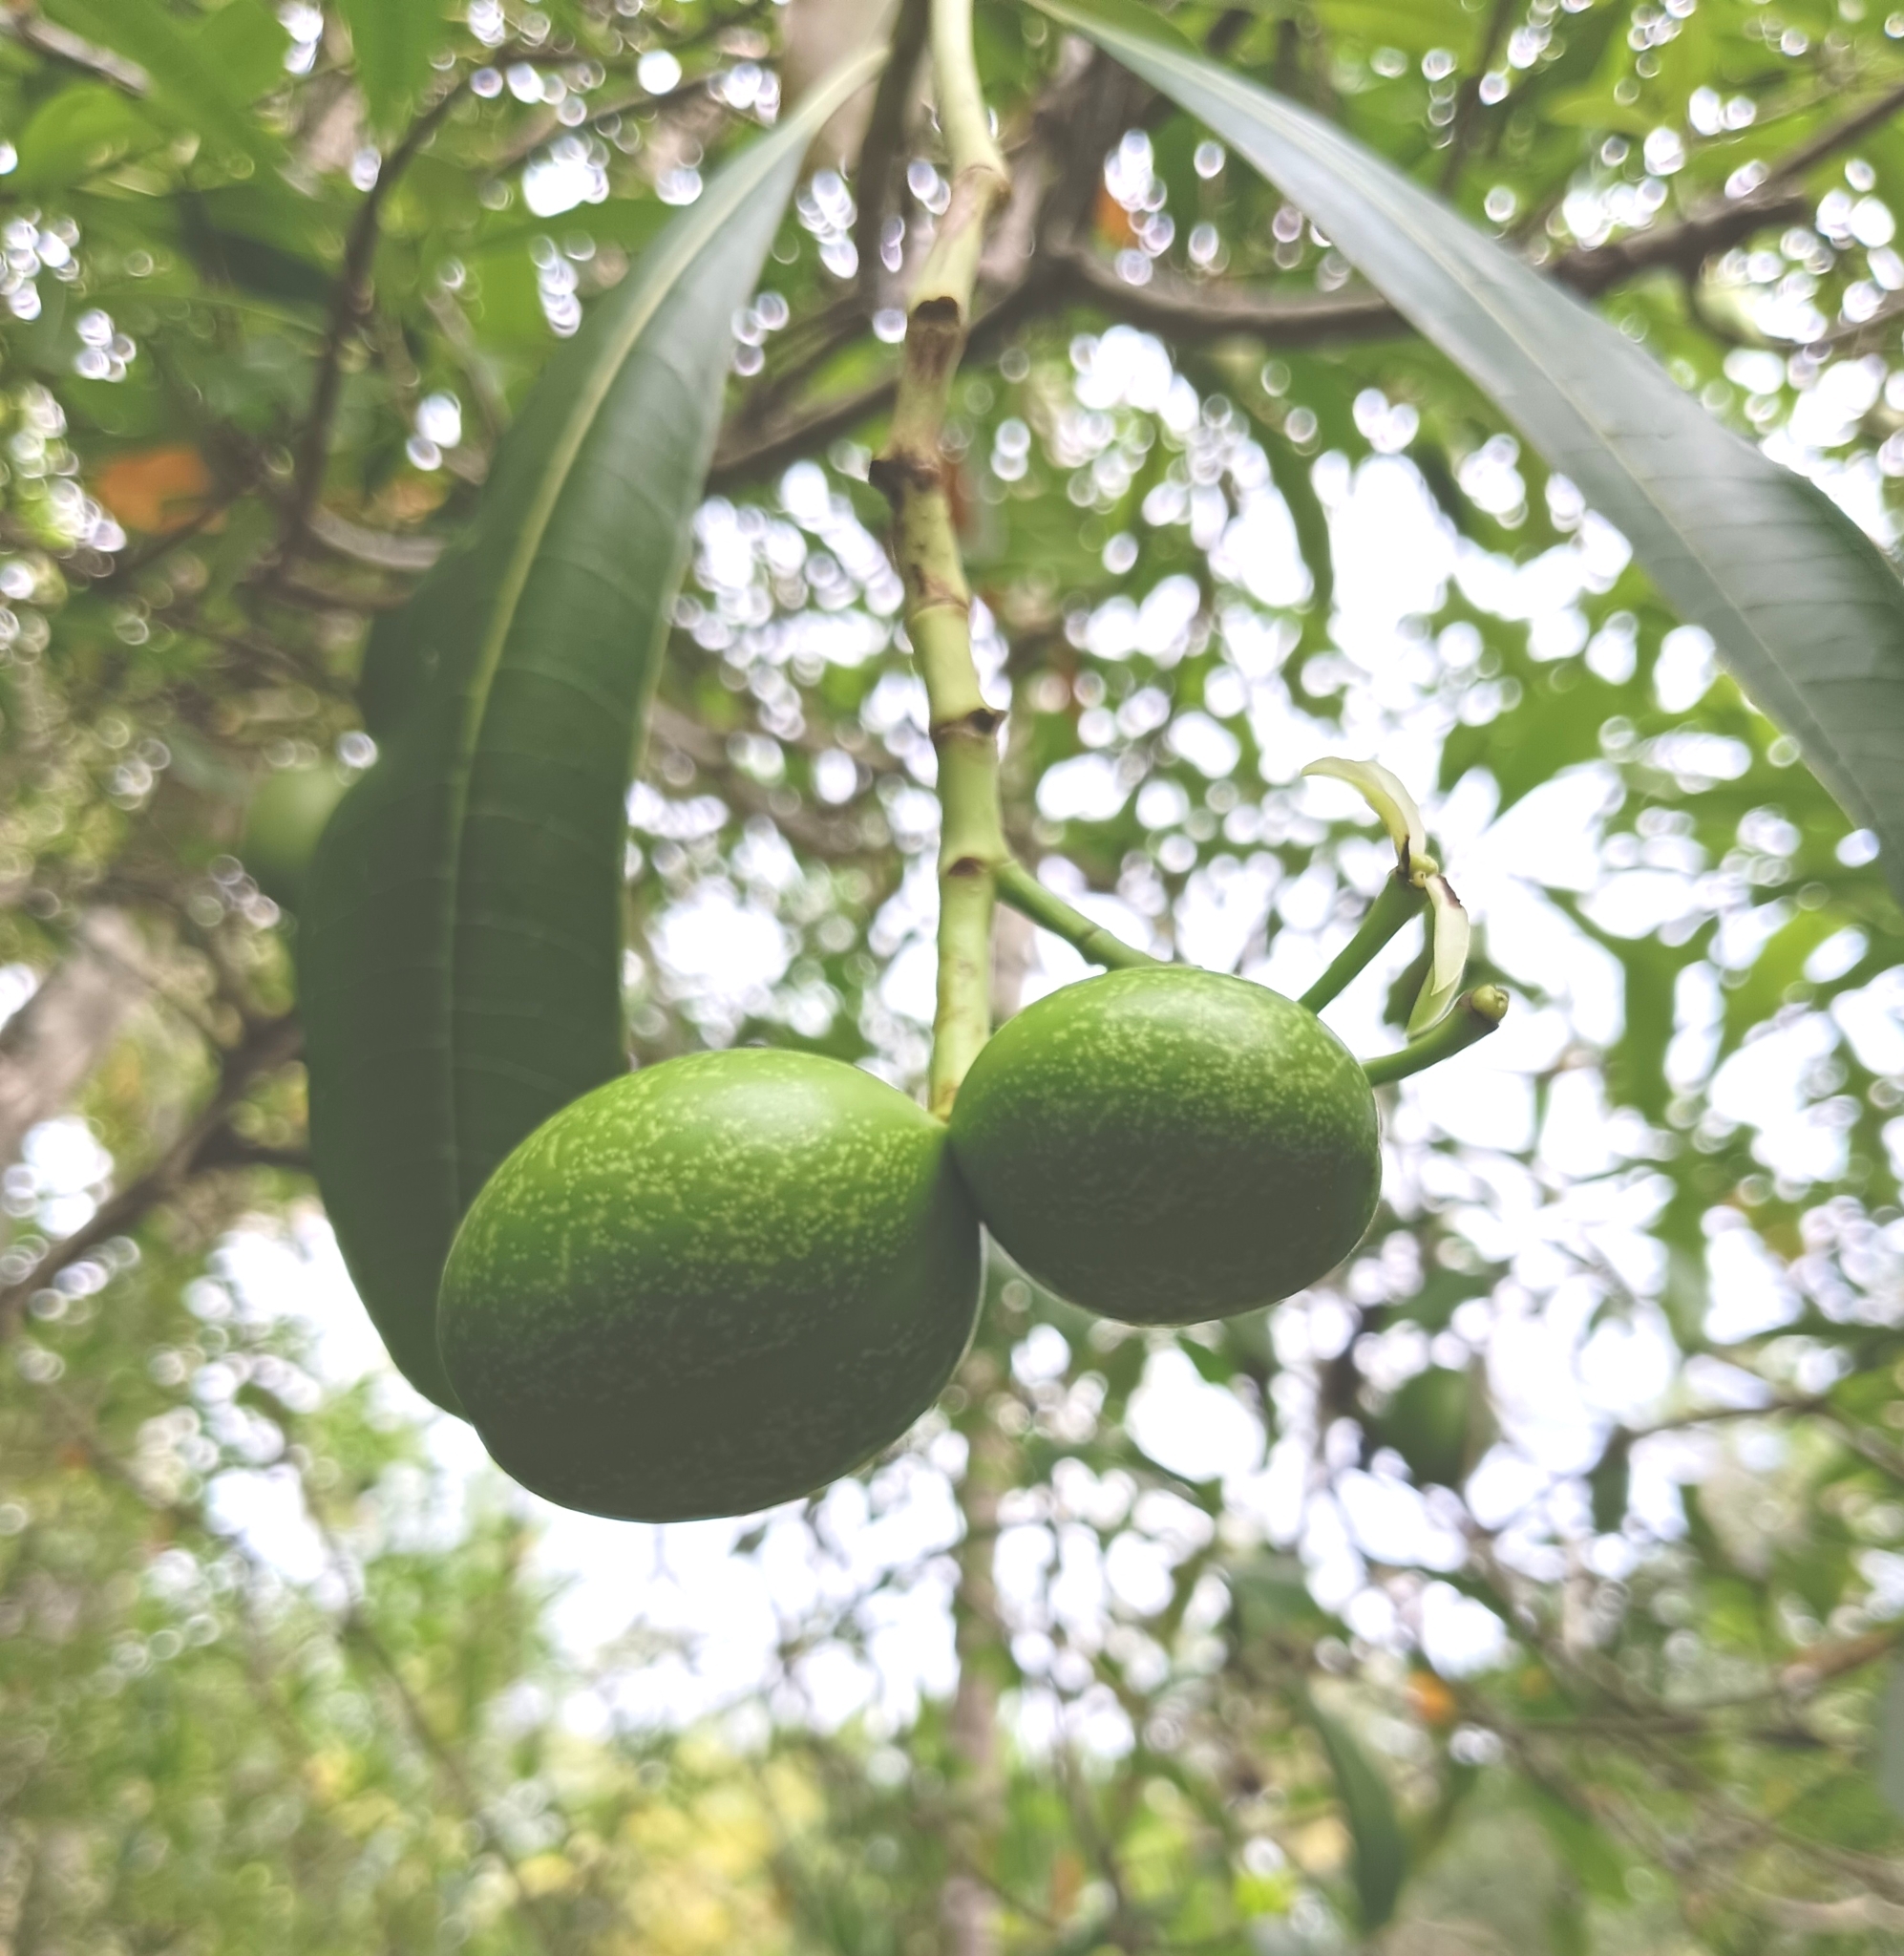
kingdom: Plantae
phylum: Tracheophyta
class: Magnoliopsida
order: Gentianales
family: Apocynaceae
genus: Cerbera
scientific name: Cerbera odollam
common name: Pong-pong
